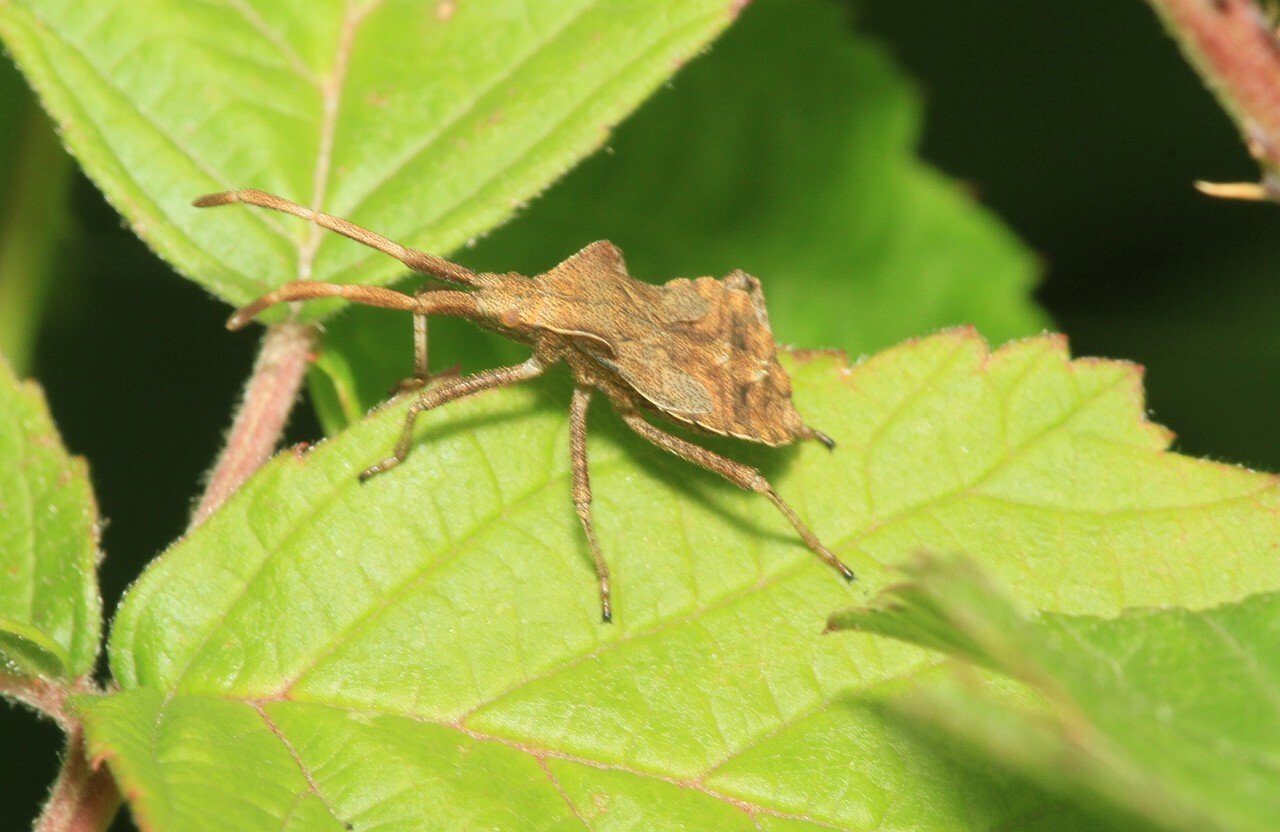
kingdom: Animalia
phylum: Arthropoda
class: Insecta
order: Hemiptera
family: Coreidae
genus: Coreus
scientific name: Coreus marginatus
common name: Dock bug
